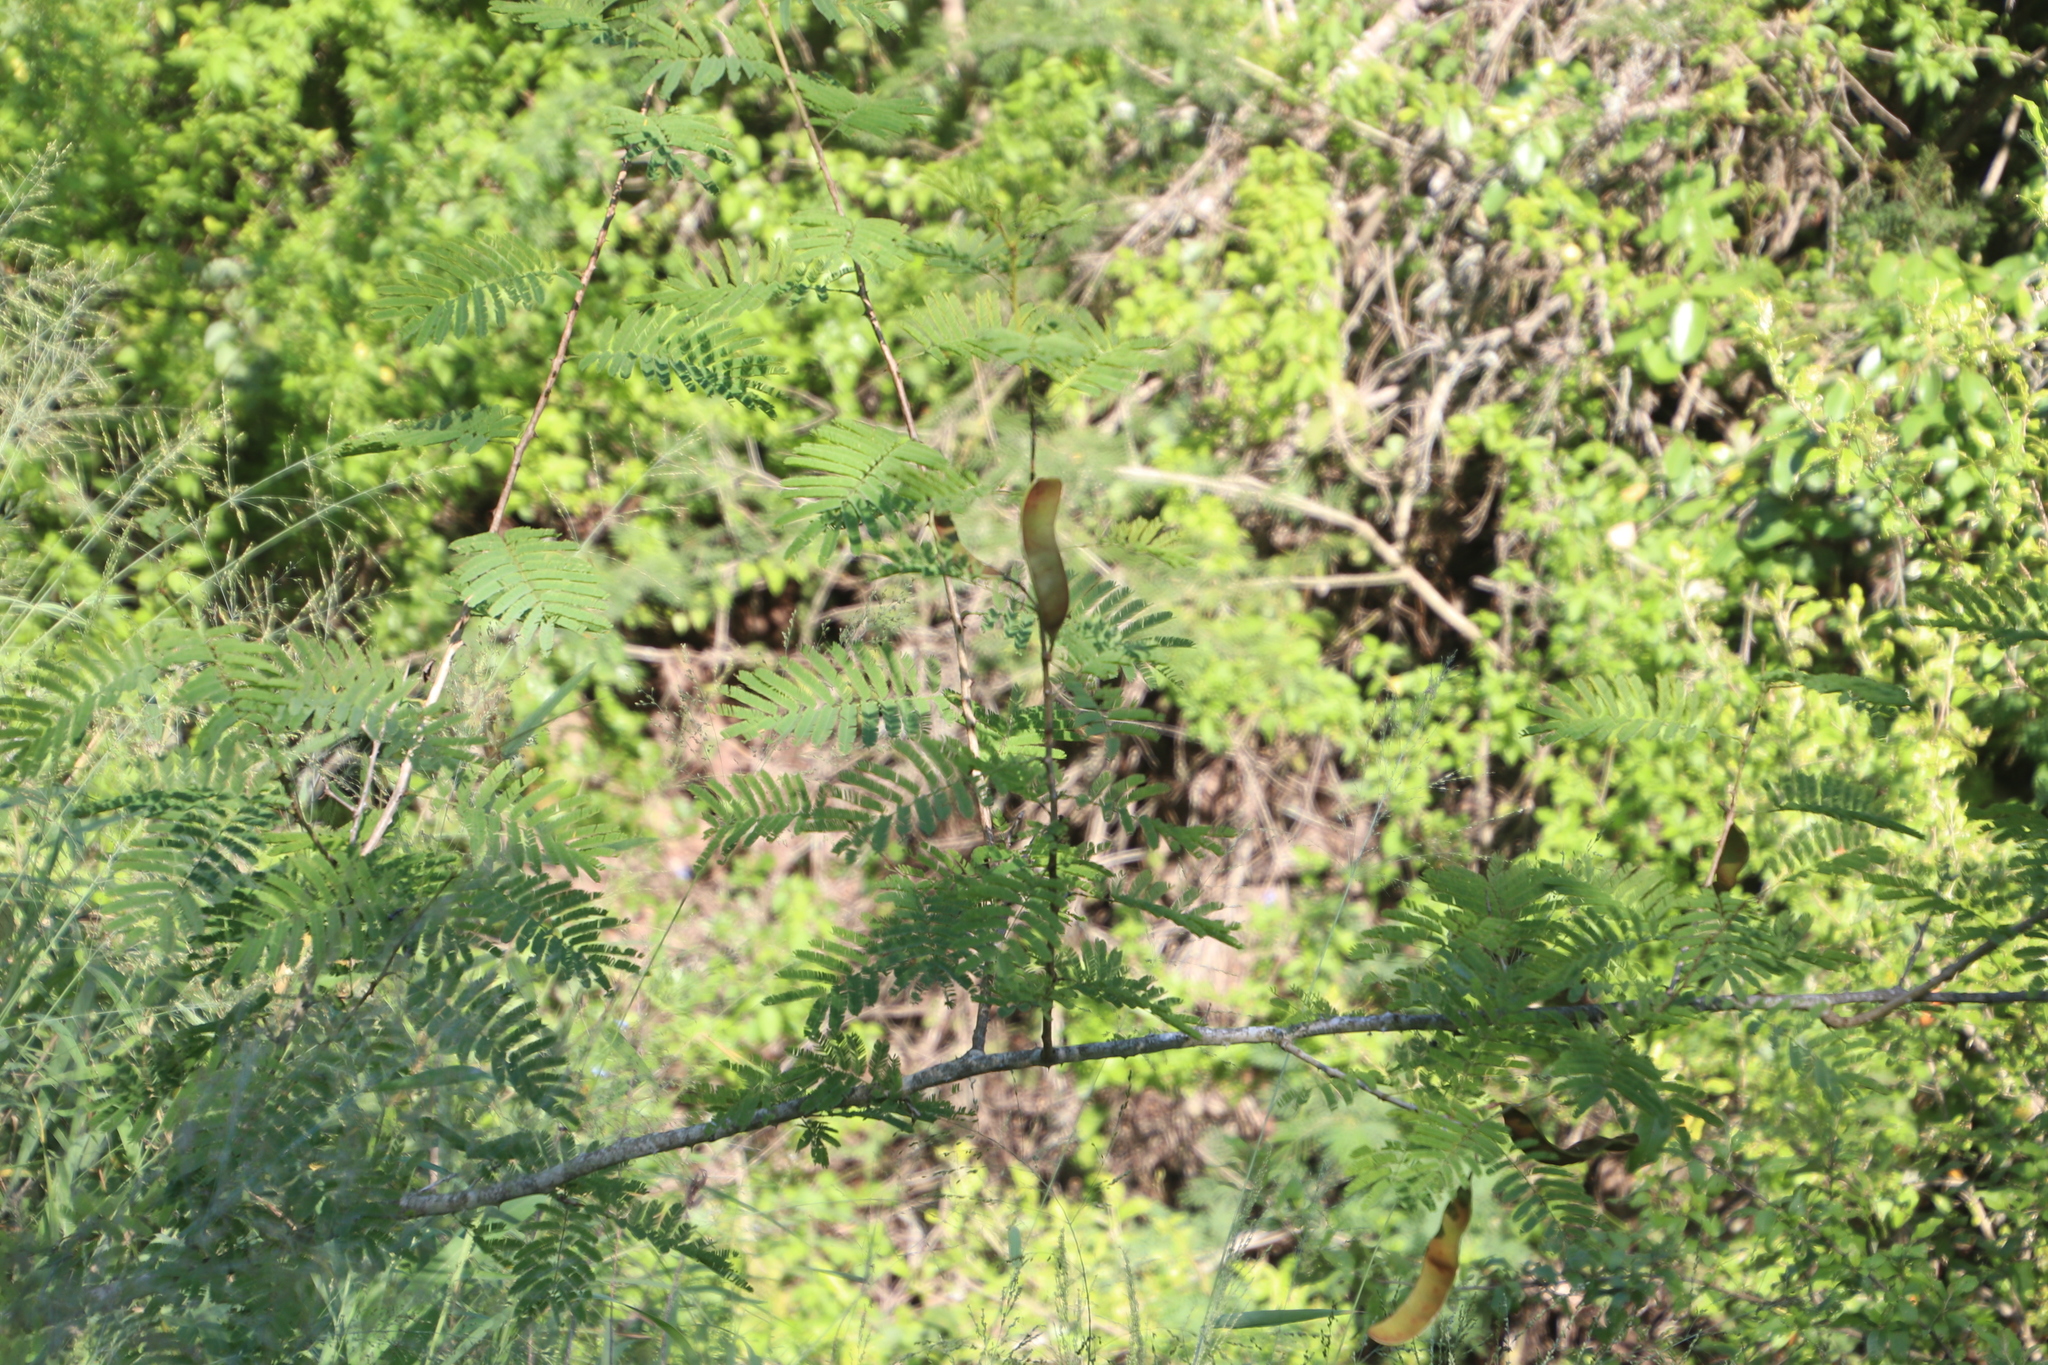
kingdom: Plantae
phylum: Tracheophyta
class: Magnoliopsida
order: Fabales
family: Fabaceae
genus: Senegalia
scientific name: Senegalia ataxacantha
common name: Flame acacia
